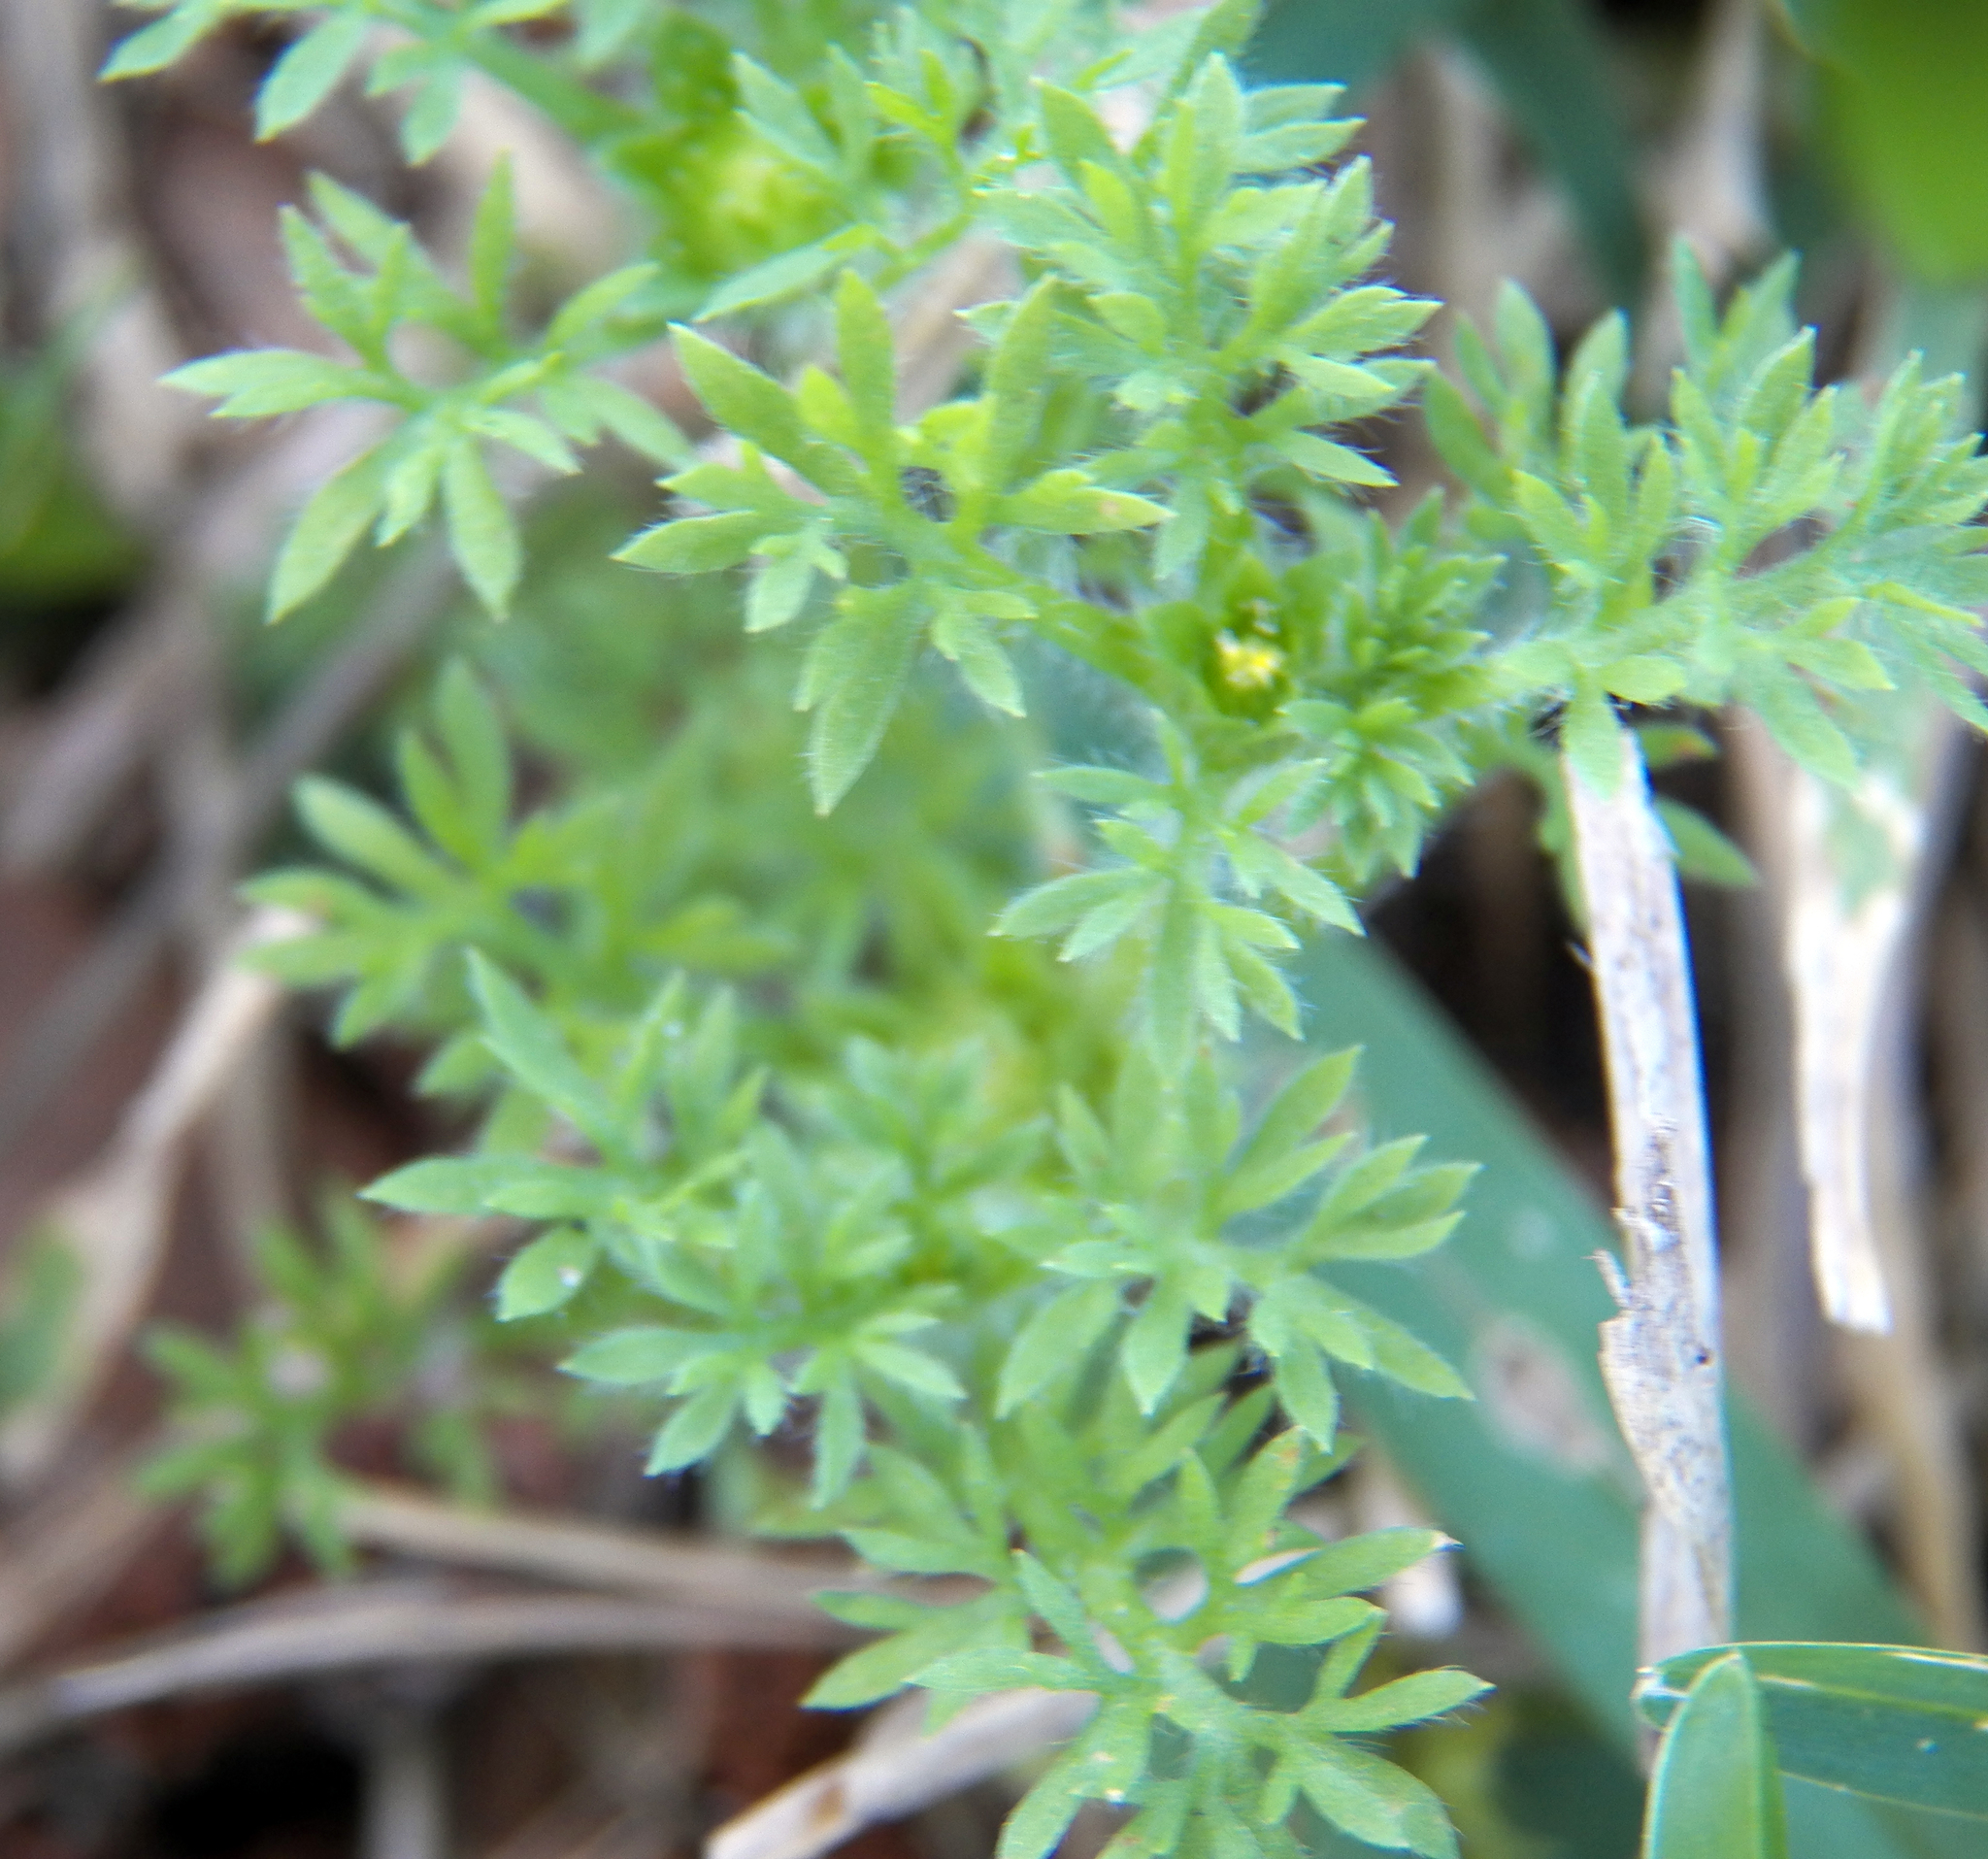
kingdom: Plantae
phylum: Tracheophyta
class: Magnoliopsida
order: Asterales
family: Asteraceae
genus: Soliva
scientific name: Soliva sessilis
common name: Field burrweed
